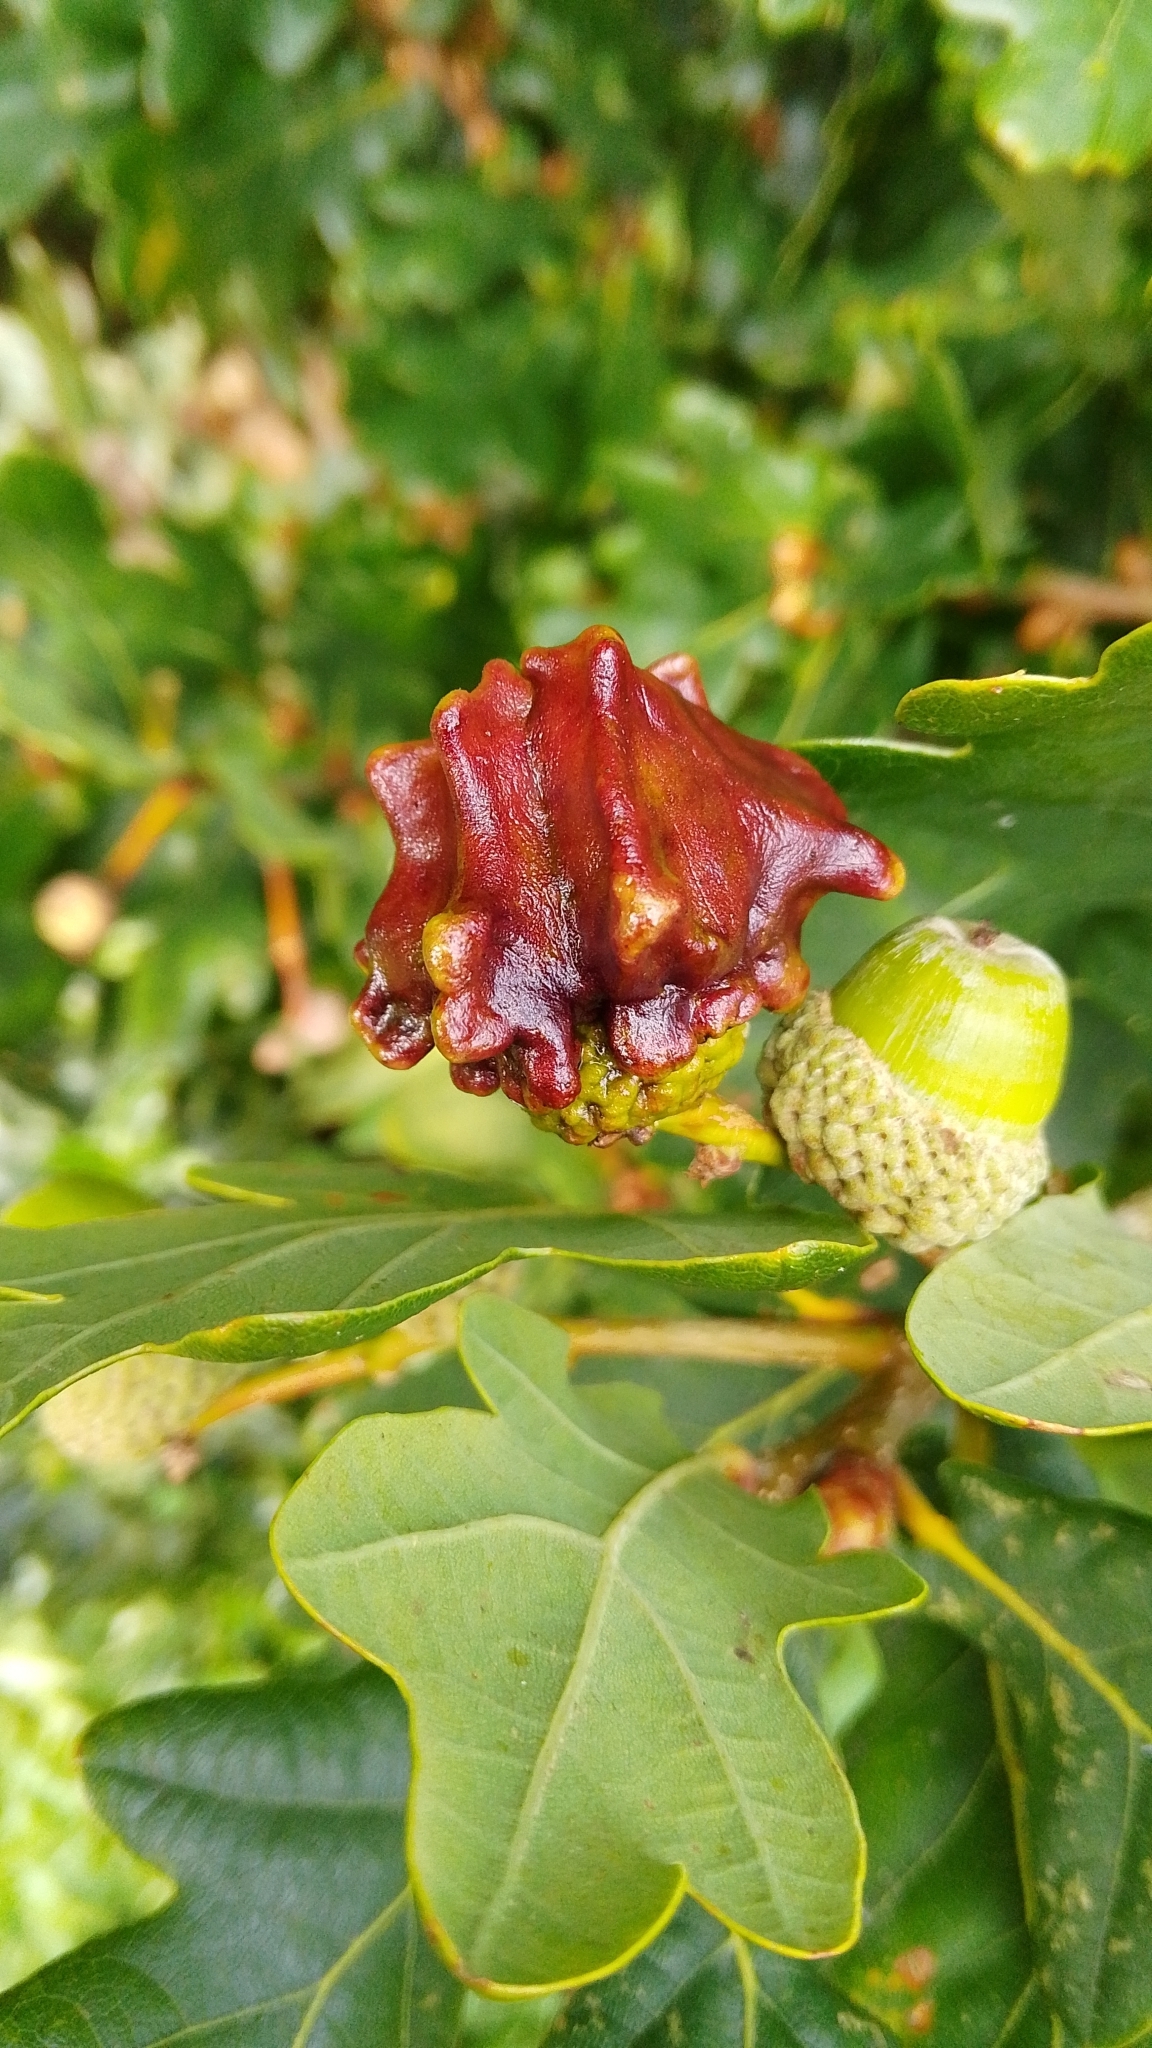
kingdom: Animalia
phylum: Arthropoda
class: Insecta
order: Hymenoptera
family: Cynipidae
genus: Andricus
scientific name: Andricus quercuscalicis
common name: Knopper gall
